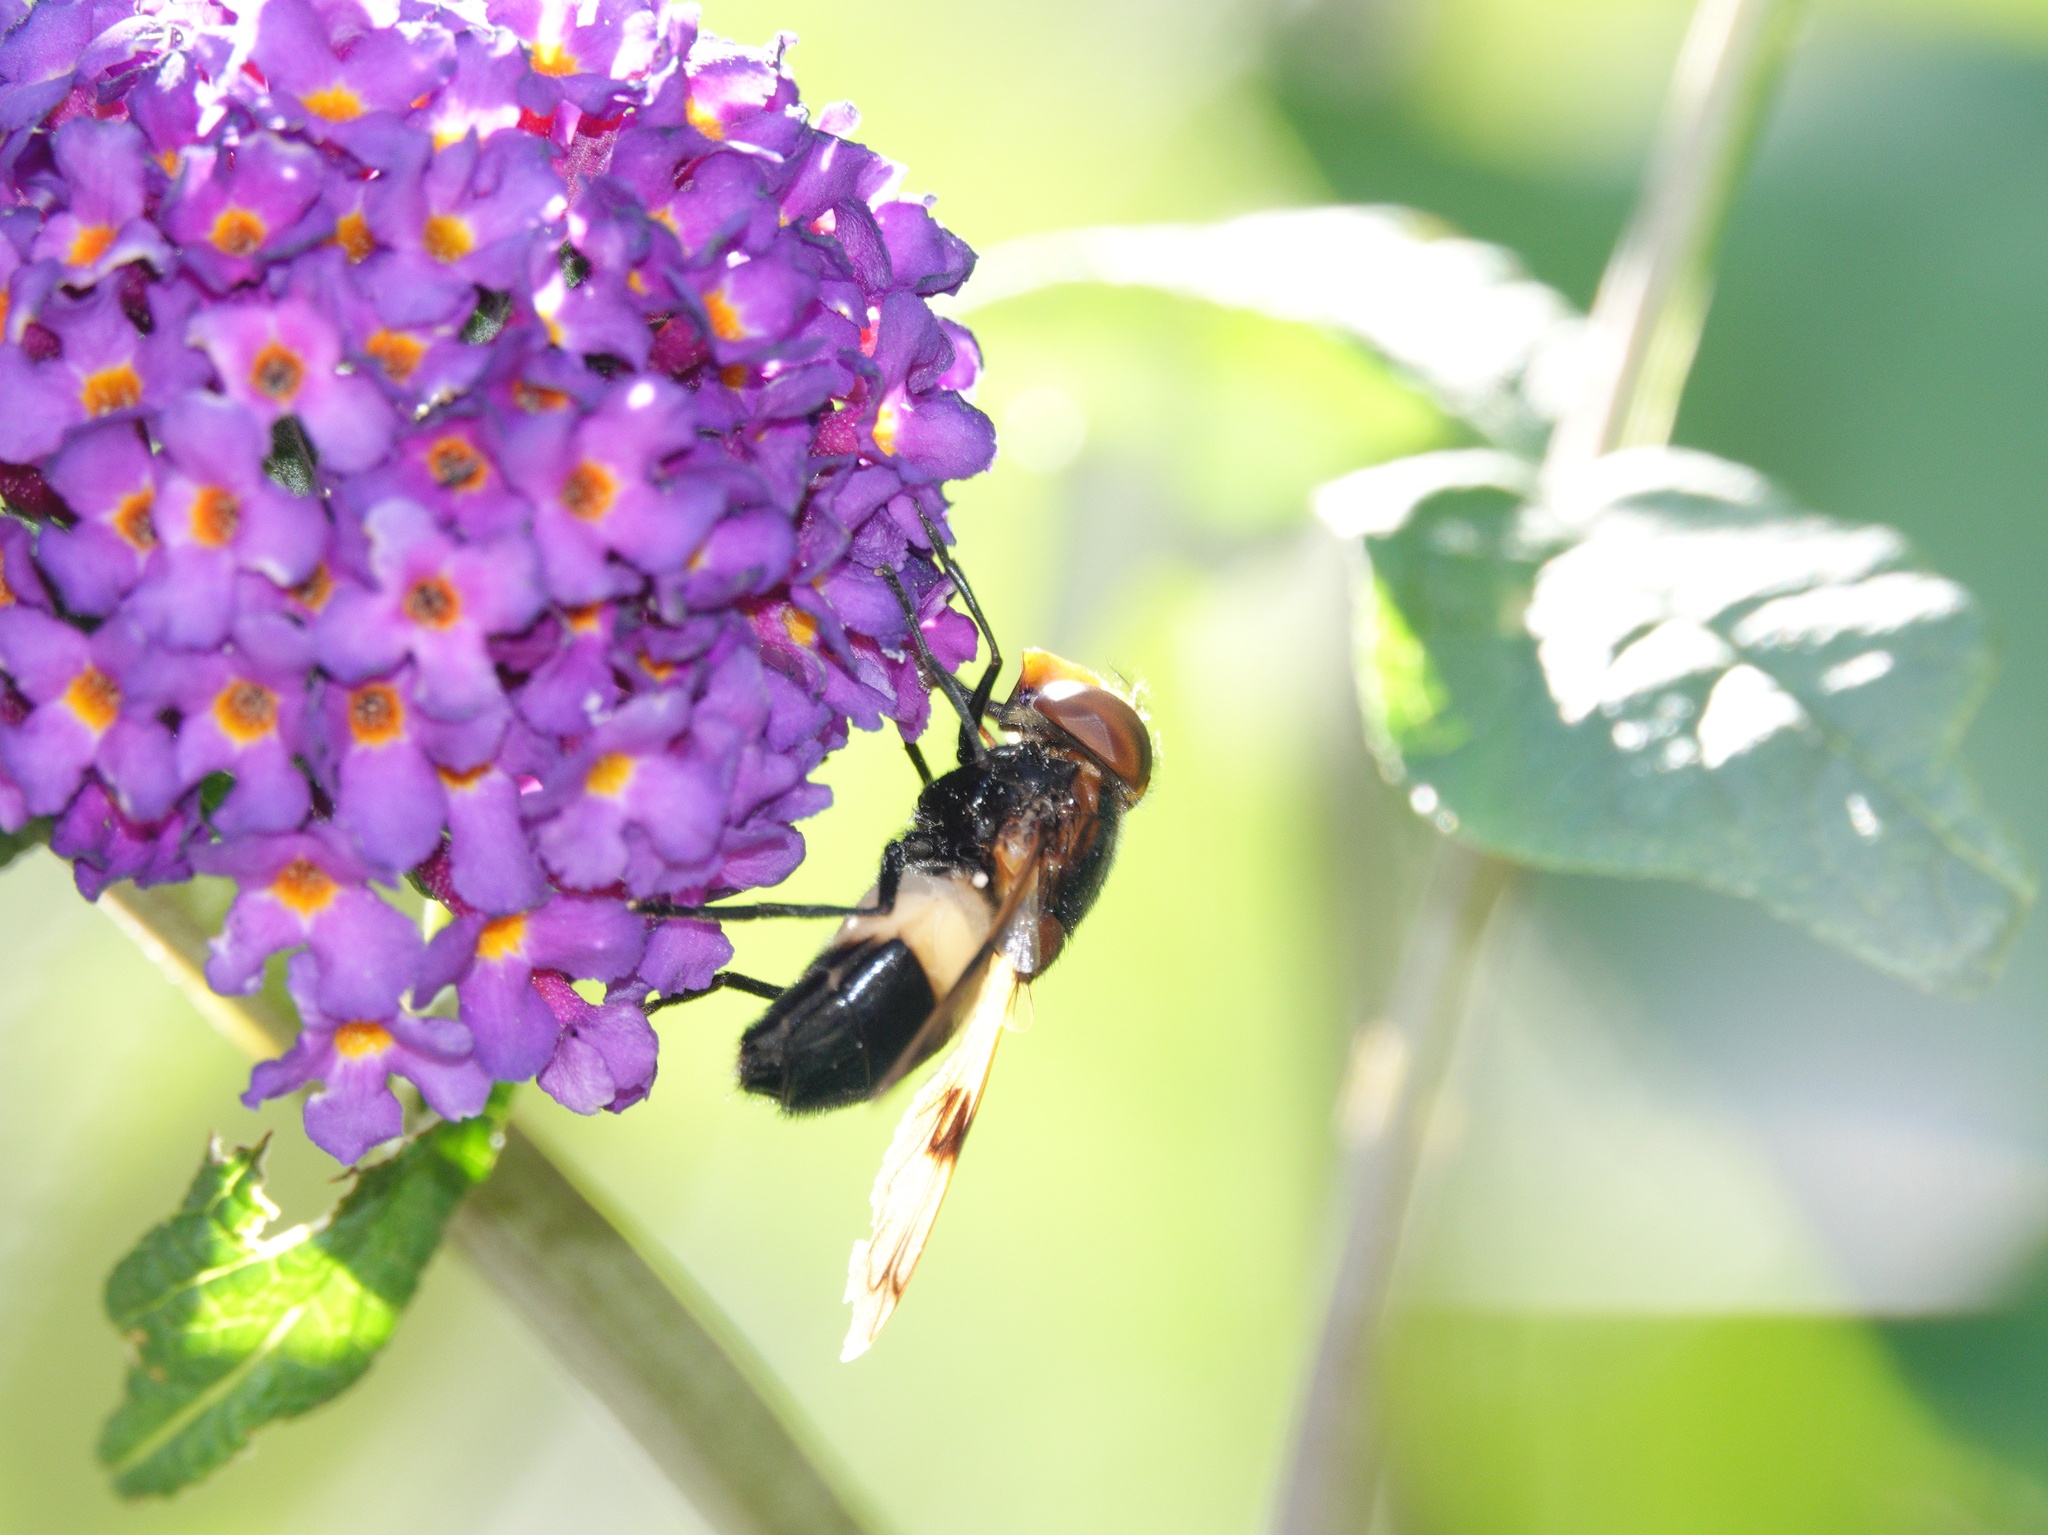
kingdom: Animalia
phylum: Arthropoda
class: Insecta
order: Diptera
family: Syrphidae
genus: Volucella
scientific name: Volucella pellucens
